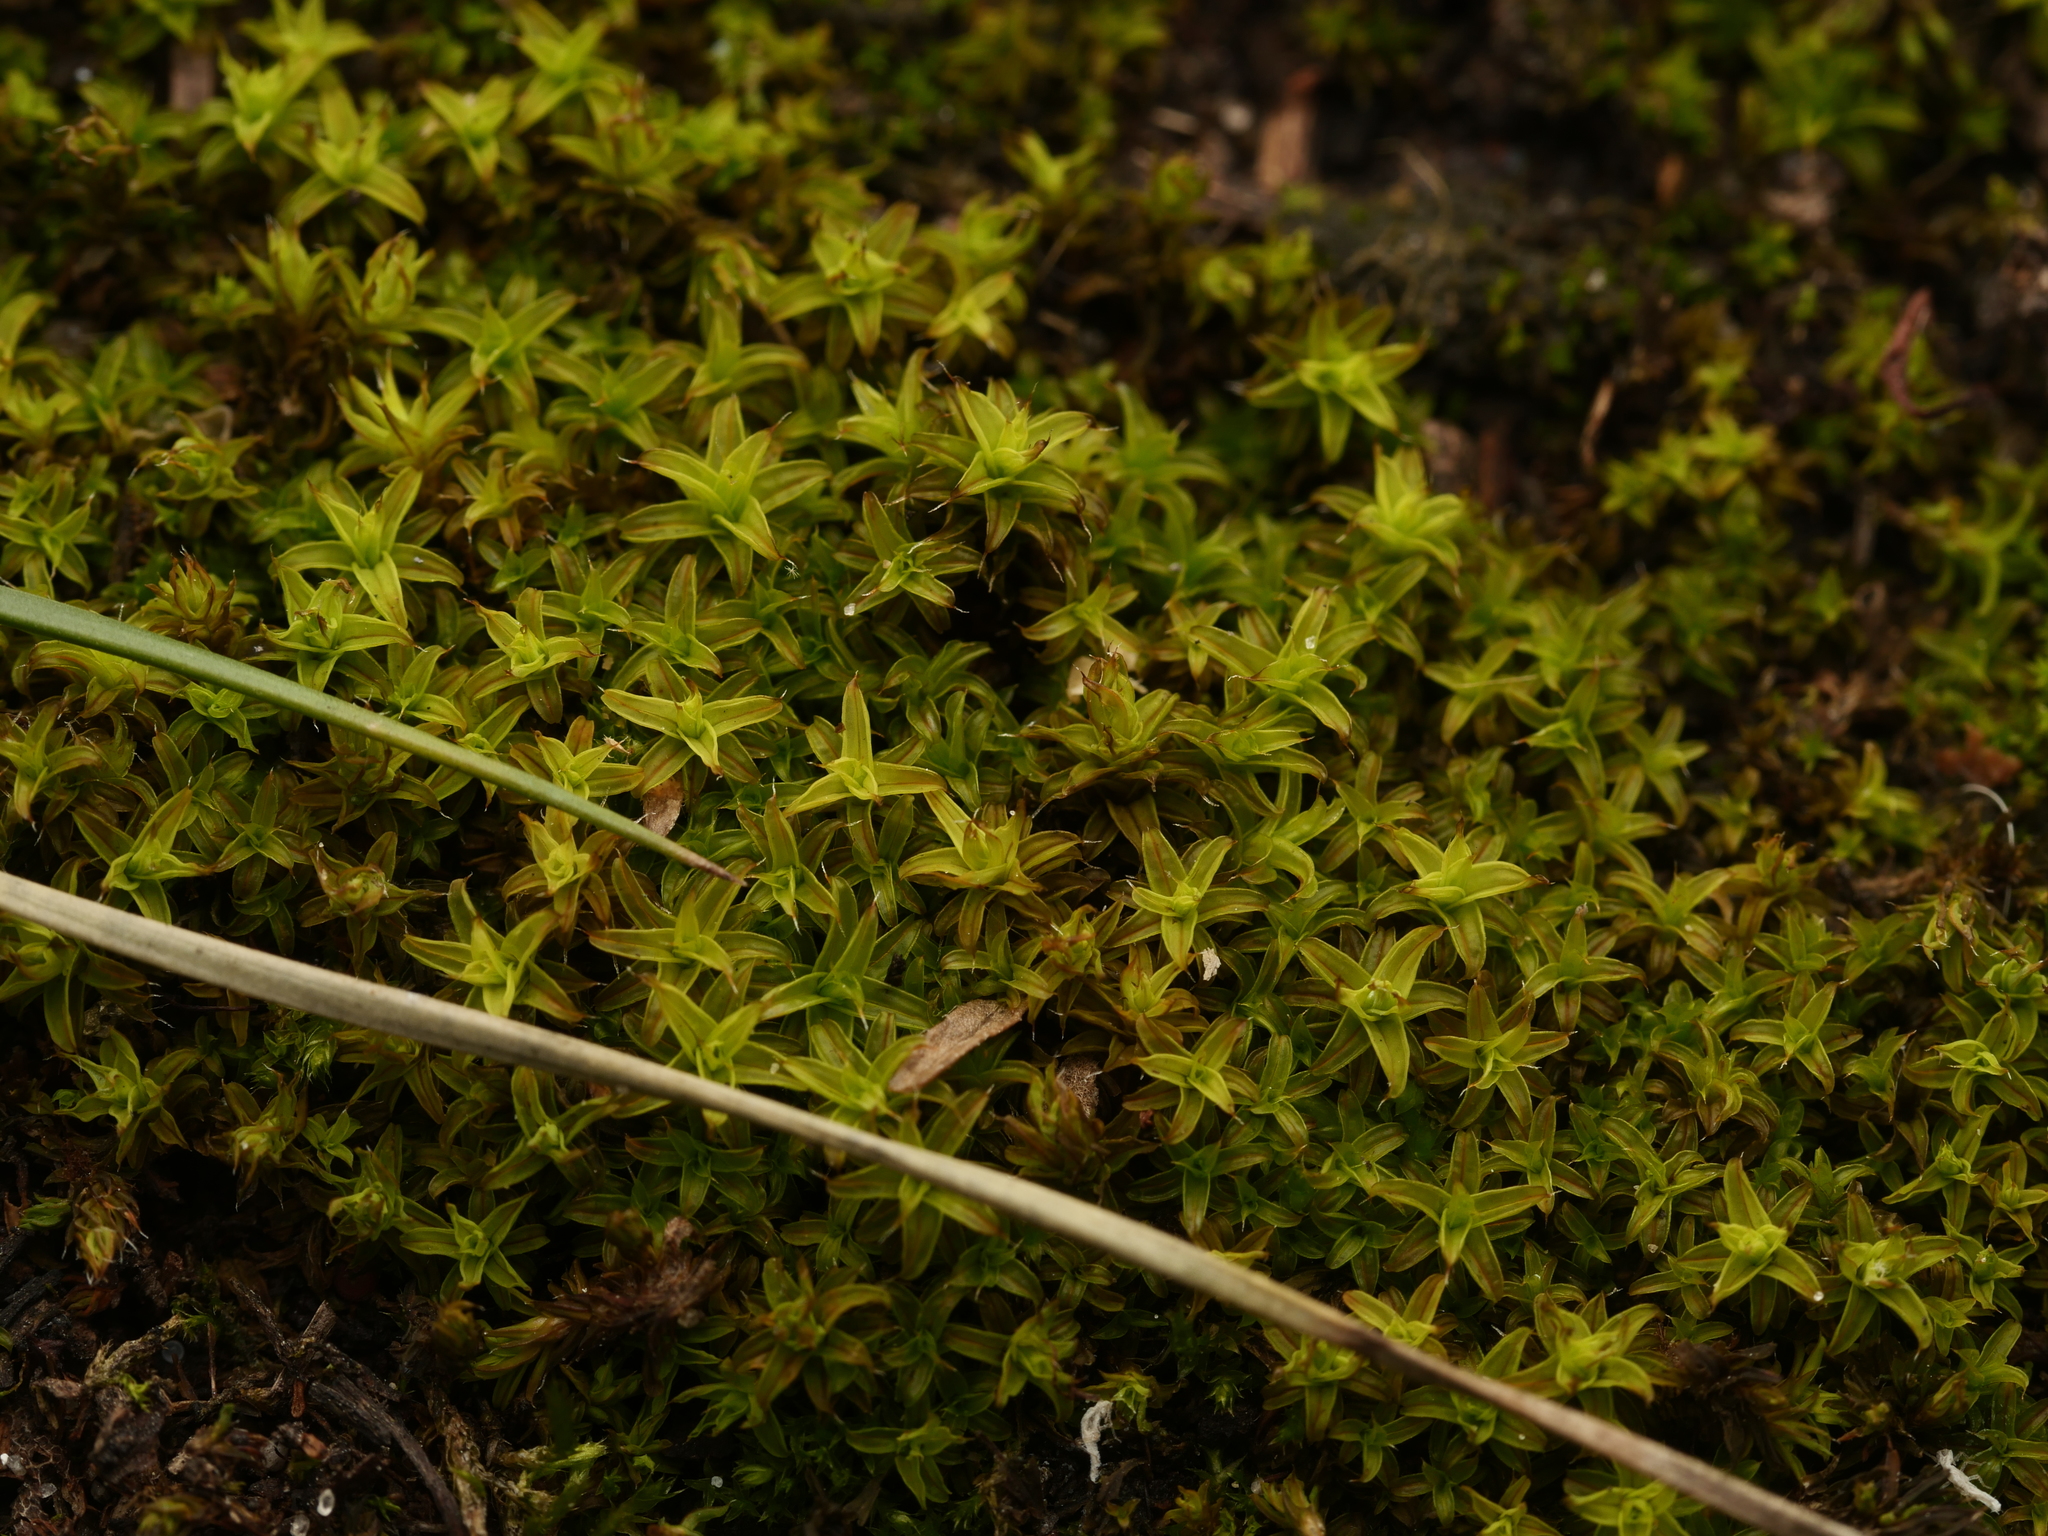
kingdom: Plantae
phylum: Bryophyta
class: Bryopsida
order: Pottiales
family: Pottiaceae
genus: Syntrichia
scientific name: Syntrichia ruralis
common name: Sidewalk screw moss
